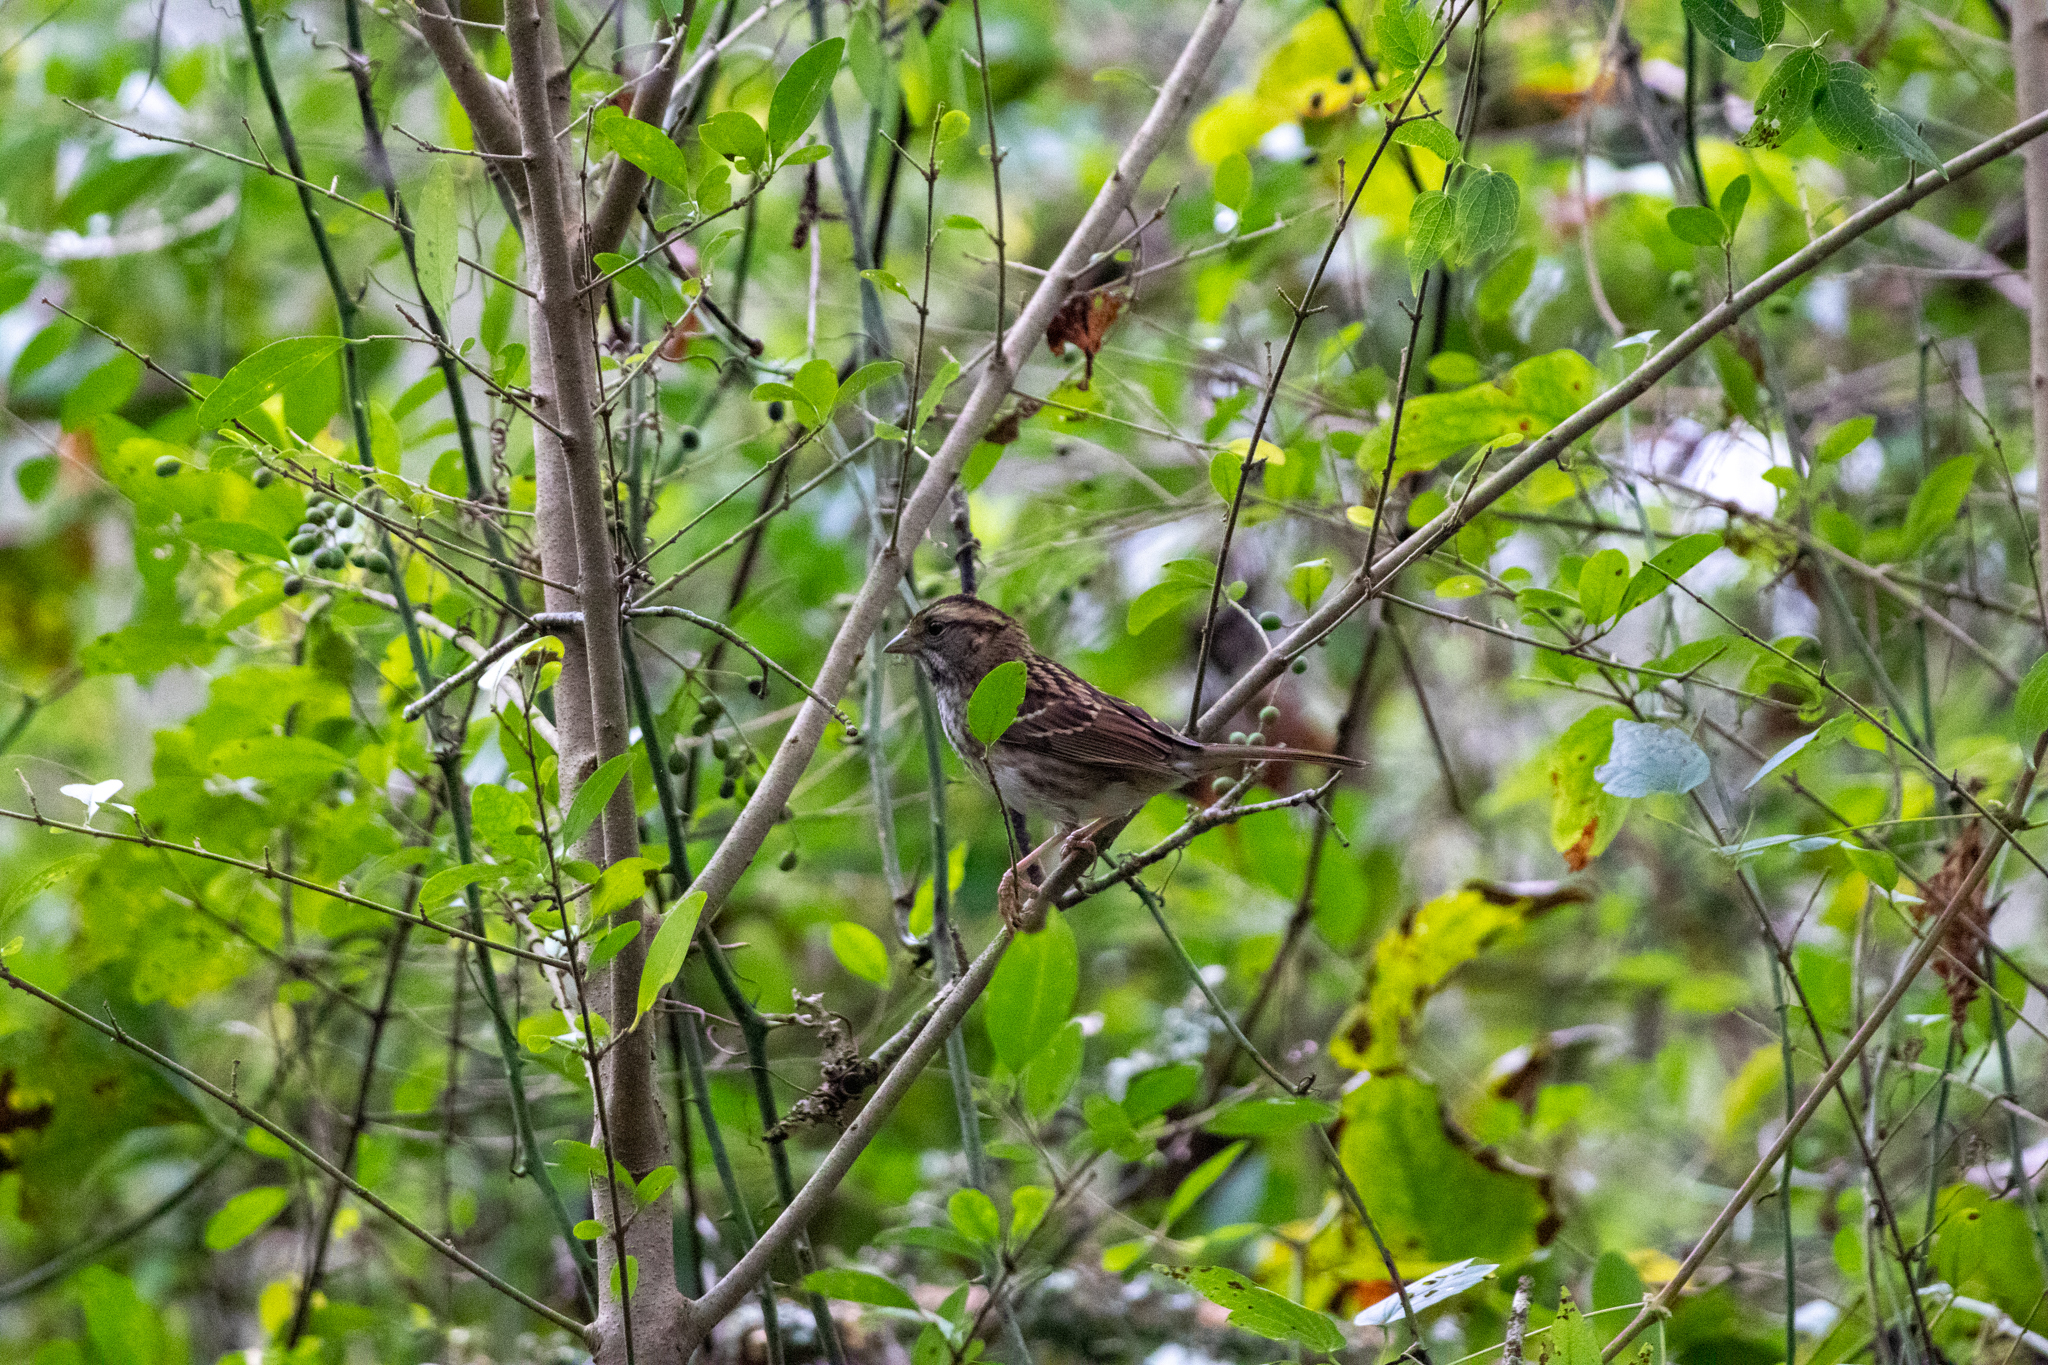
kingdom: Animalia
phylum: Chordata
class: Aves
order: Passeriformes
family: Passerellidae
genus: Zonotrichia
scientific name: Zonotrichia albicollis
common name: White-throated sparrow
